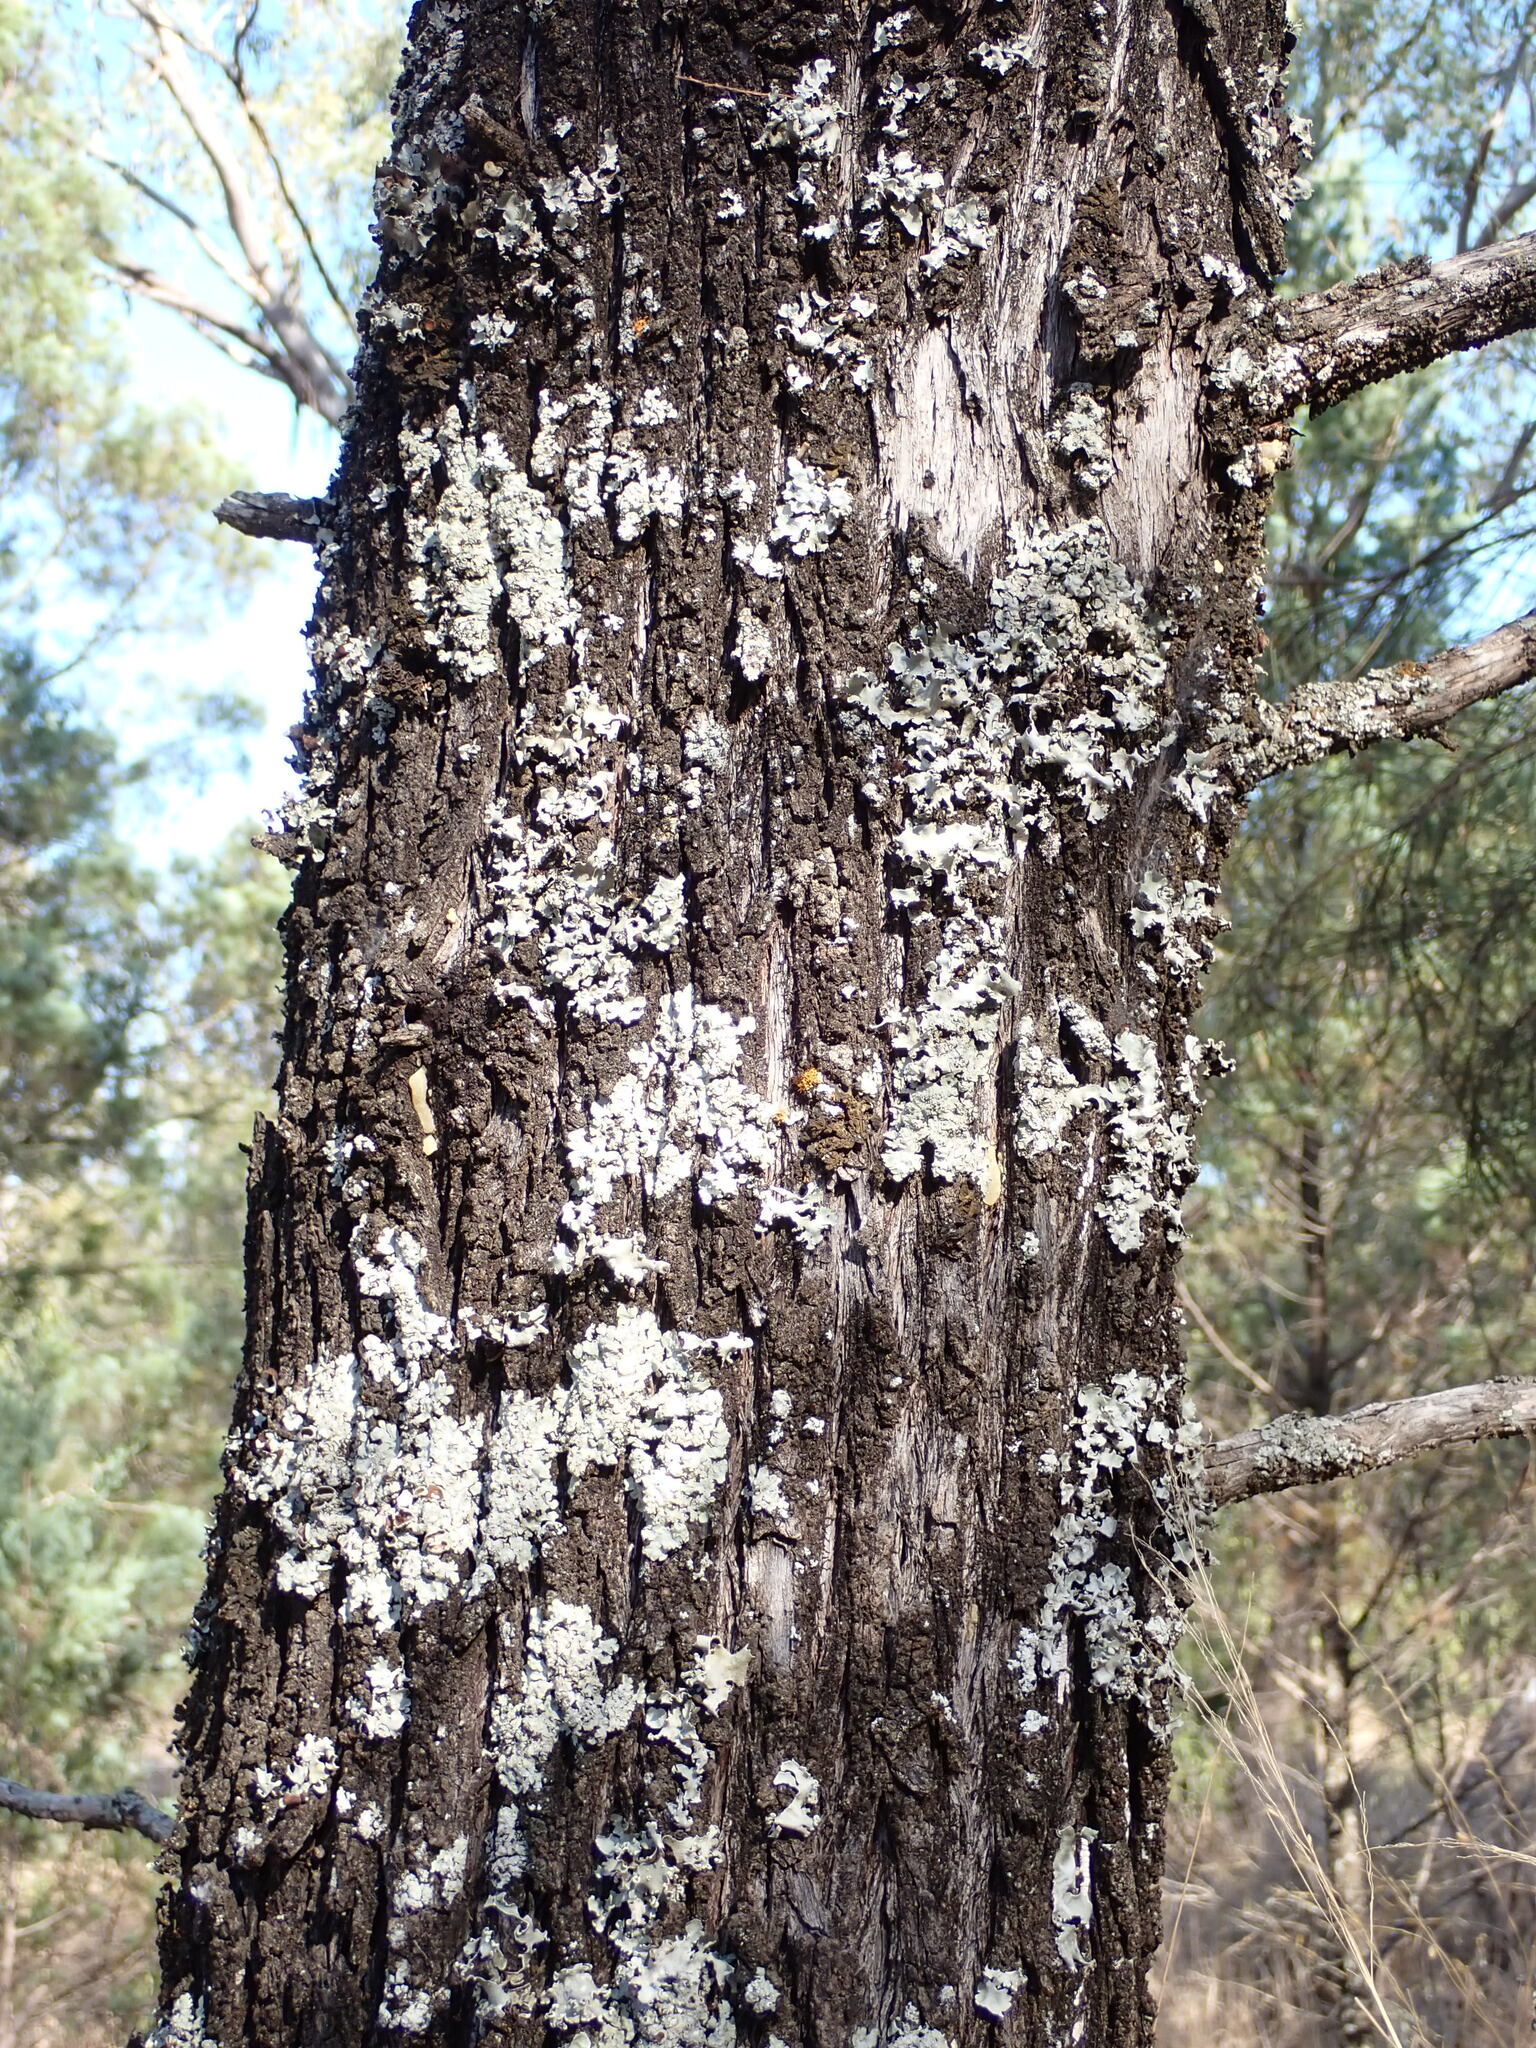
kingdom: Plantae
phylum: Tracheophyta
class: Pinopsida
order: Pinales
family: Cupressaceae
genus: Callitris
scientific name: Callitris columellaris
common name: White cypress-pine
